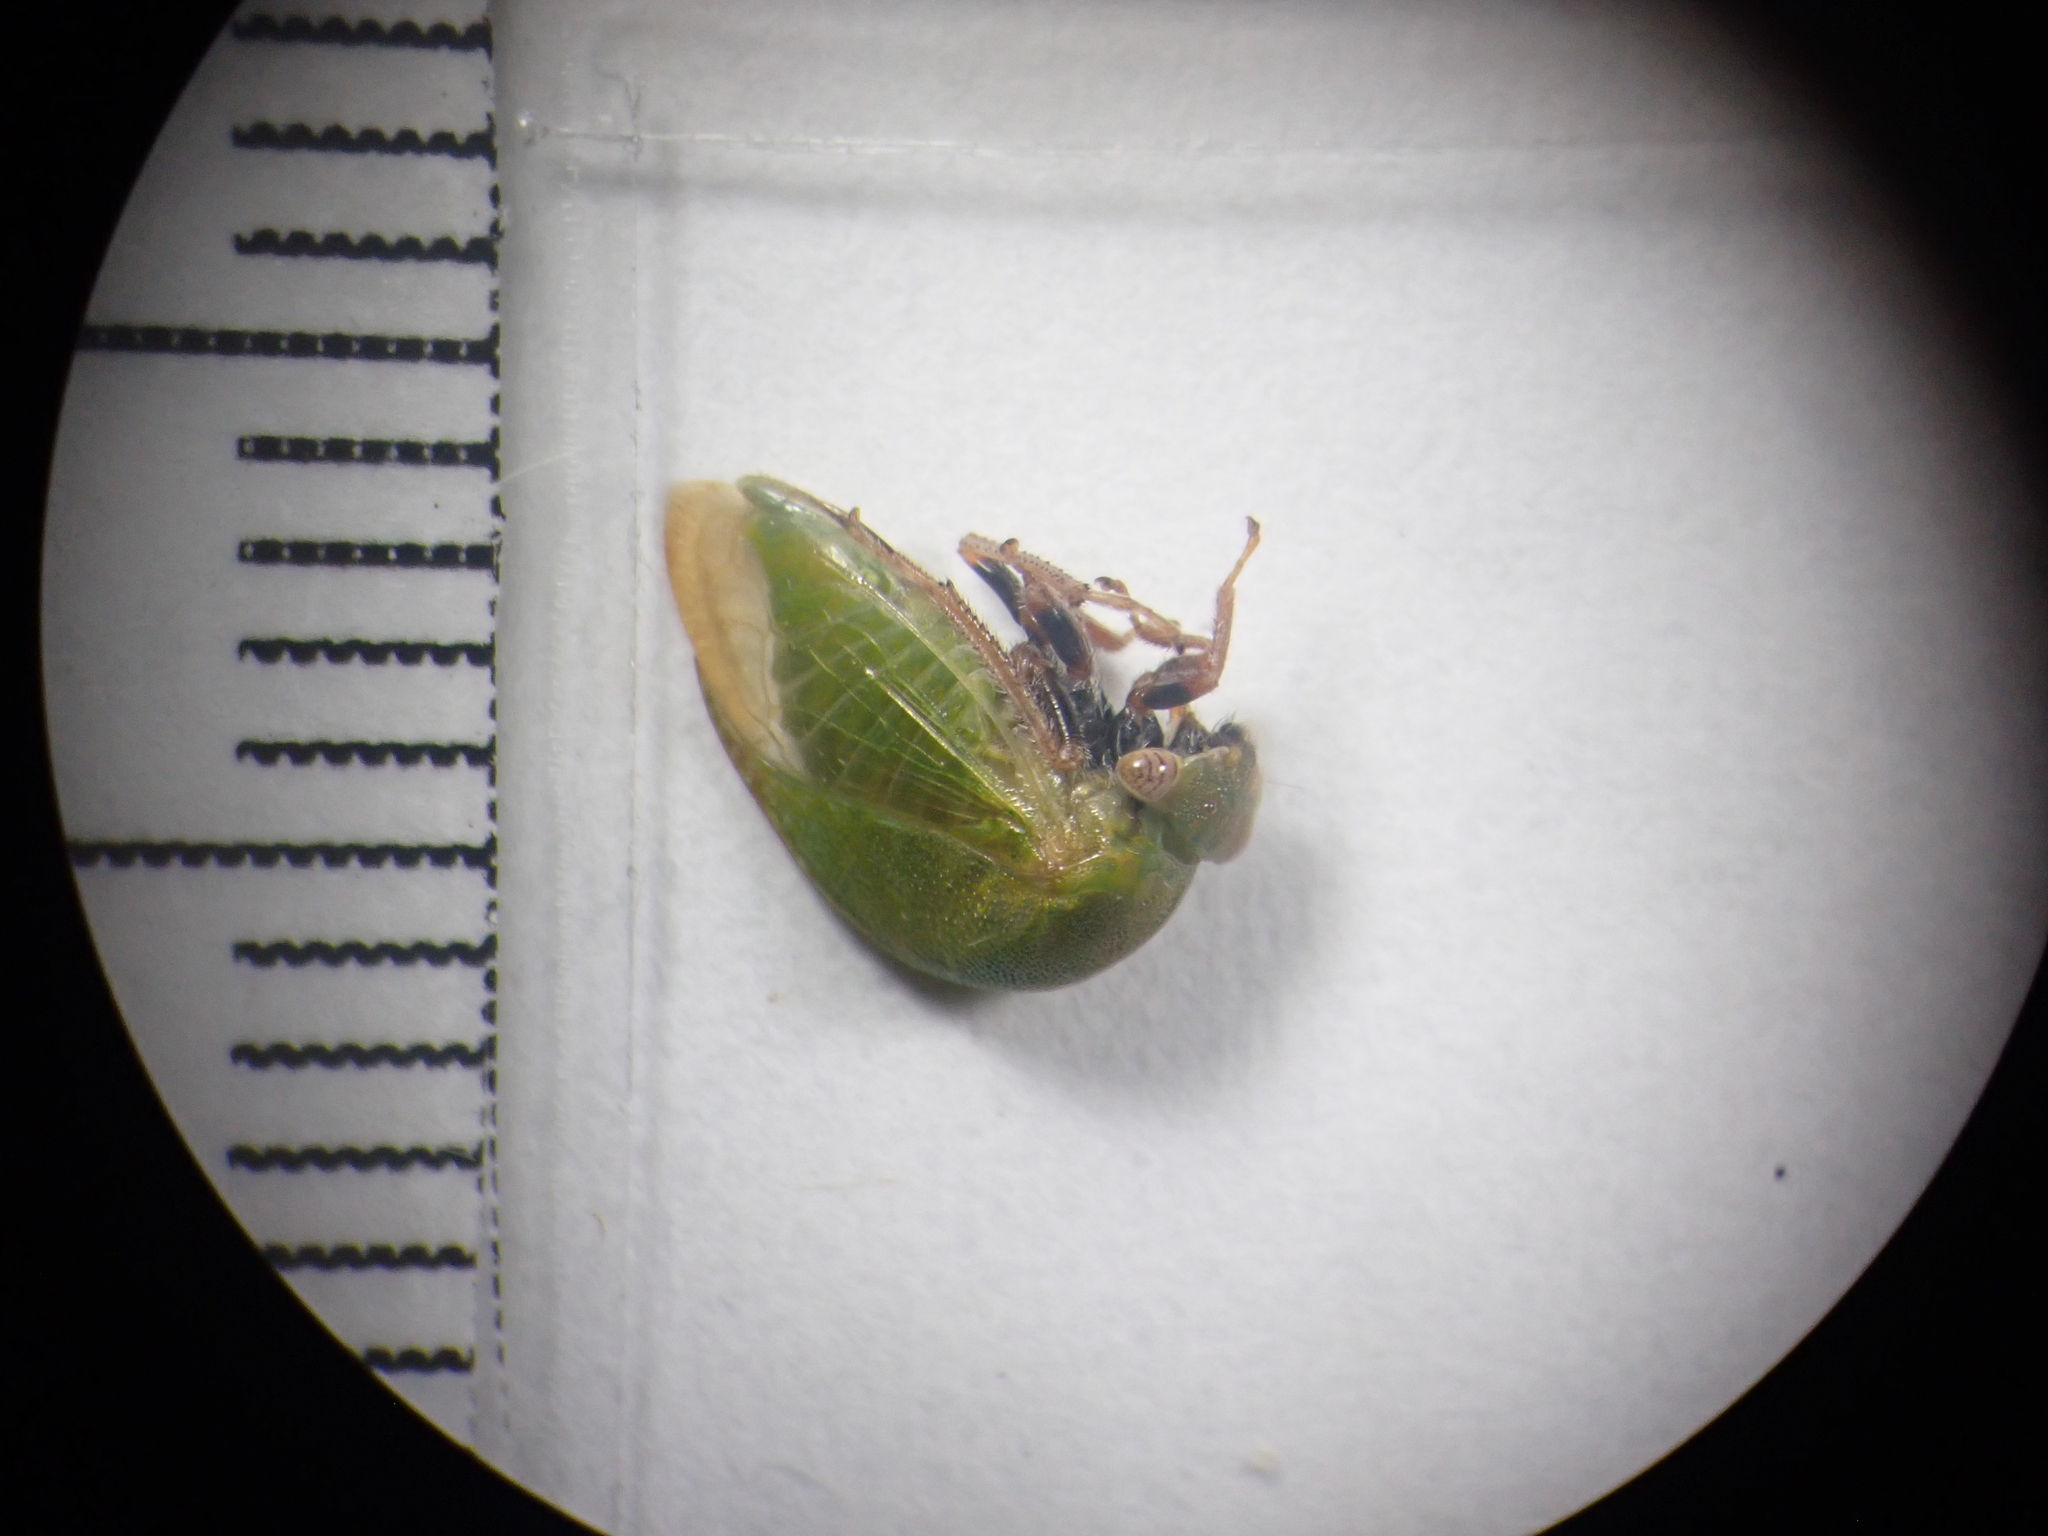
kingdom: Animalia
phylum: Arthropoda
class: Insecta
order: Hemiptera
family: Membracidae
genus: Stictocephala
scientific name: Stictocephala lutea
